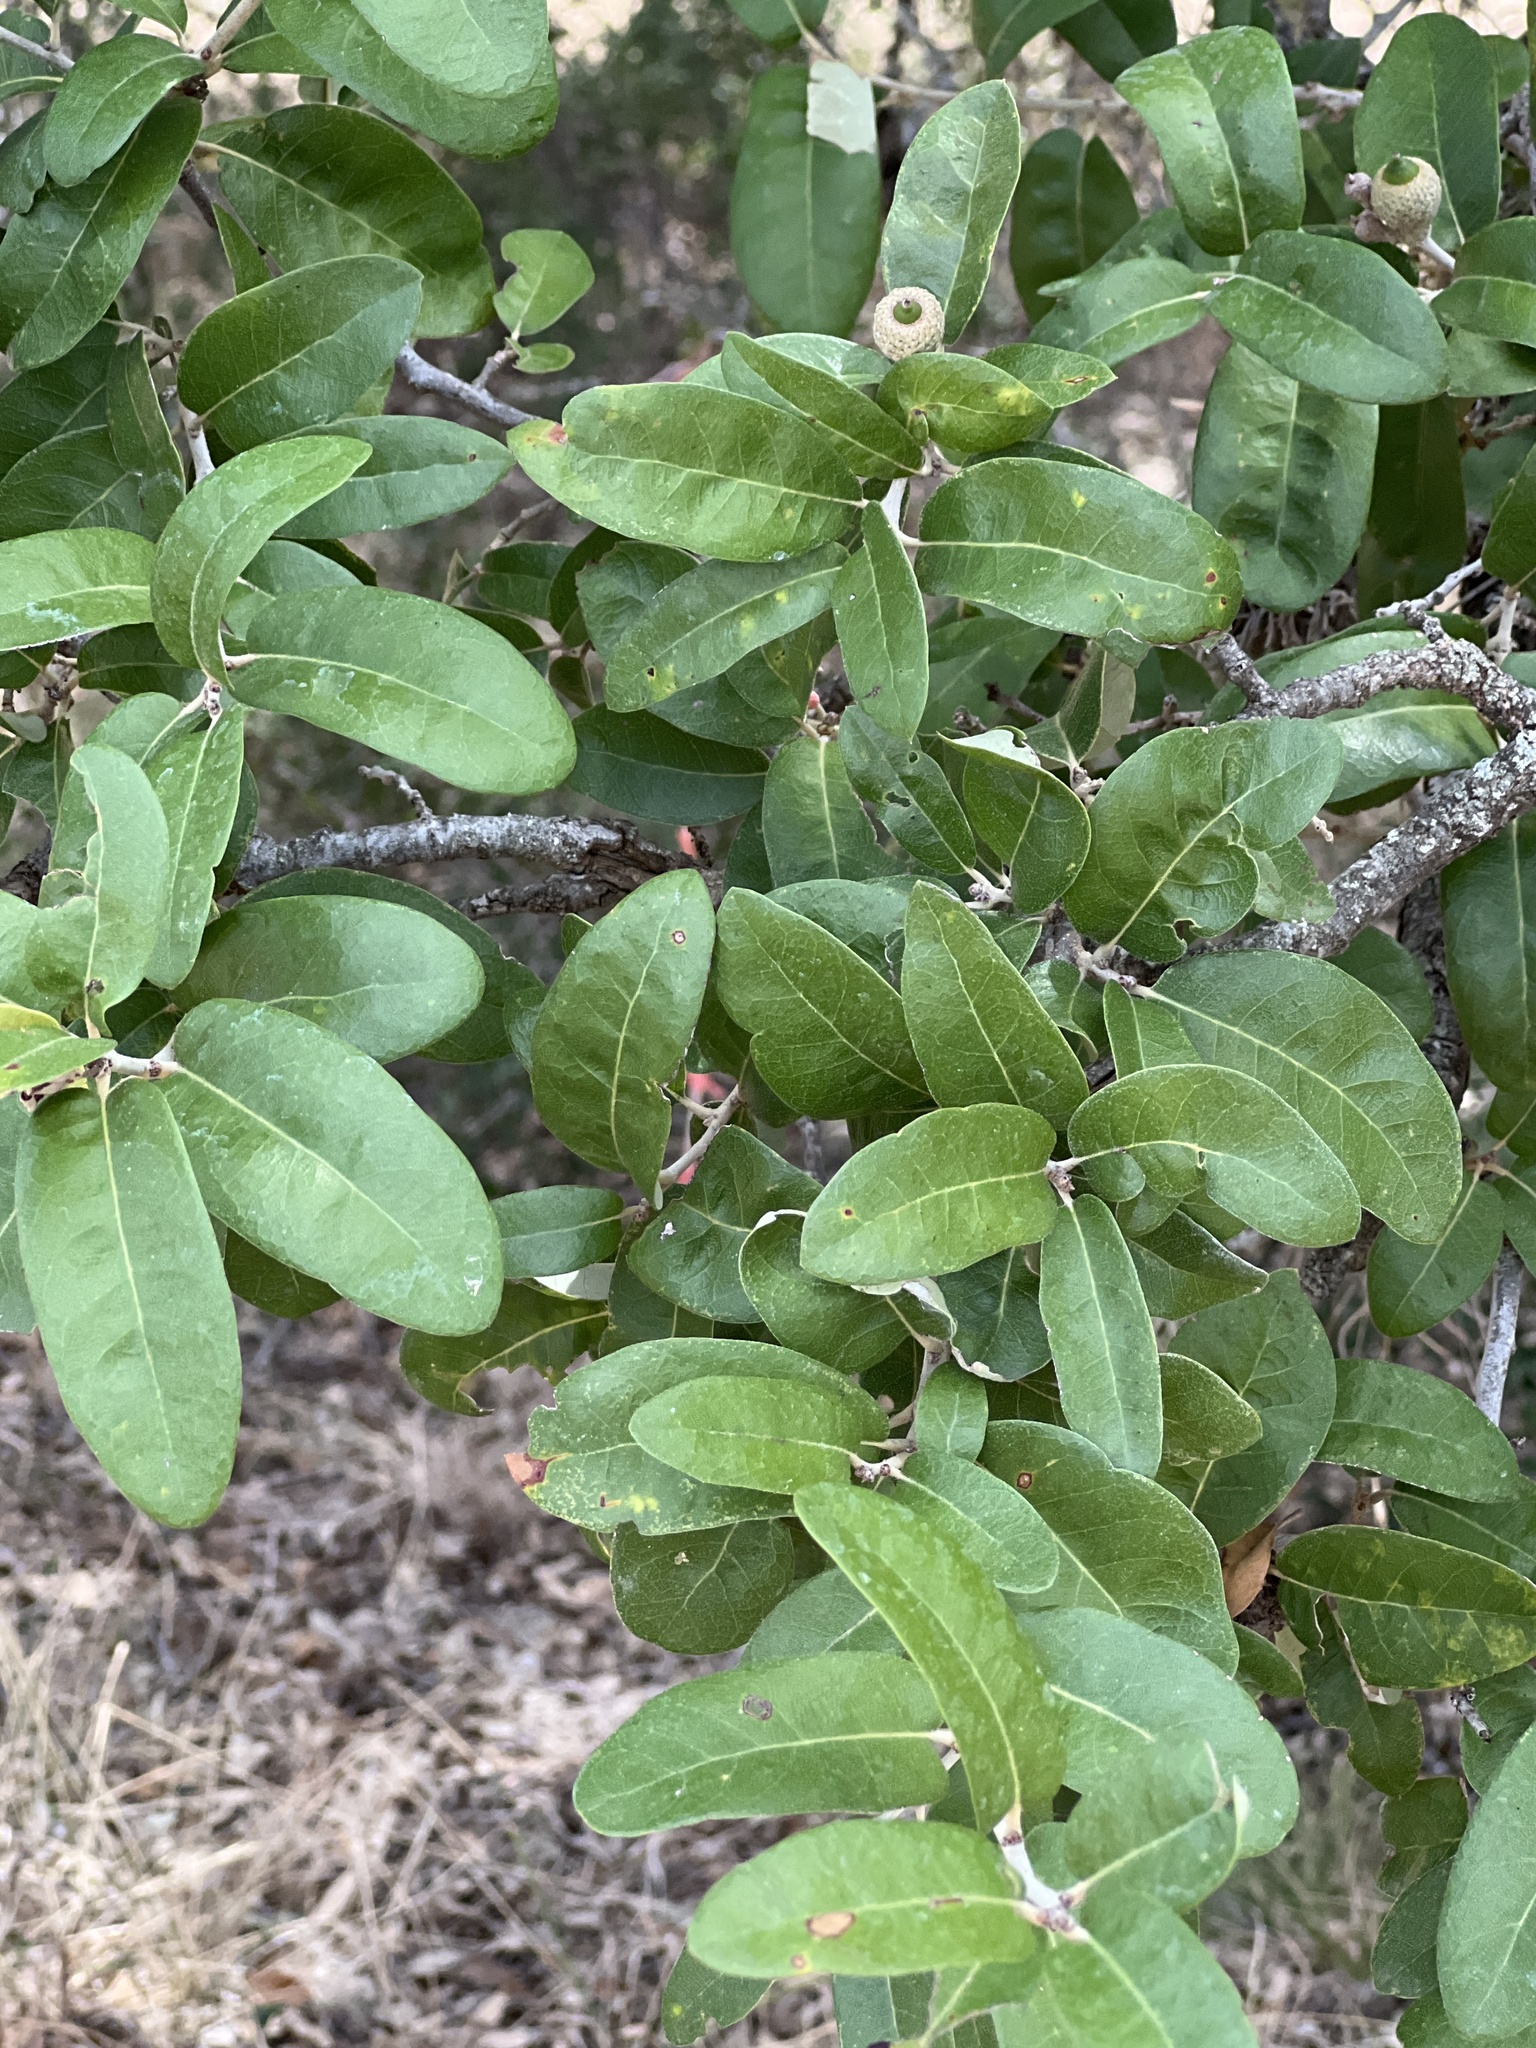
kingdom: Plantae
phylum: Tracheophyta
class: Magnoliopsida
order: Fagales
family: Fagaceae
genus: Quercus
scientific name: Quercus fusiformis
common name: Texas live oak
